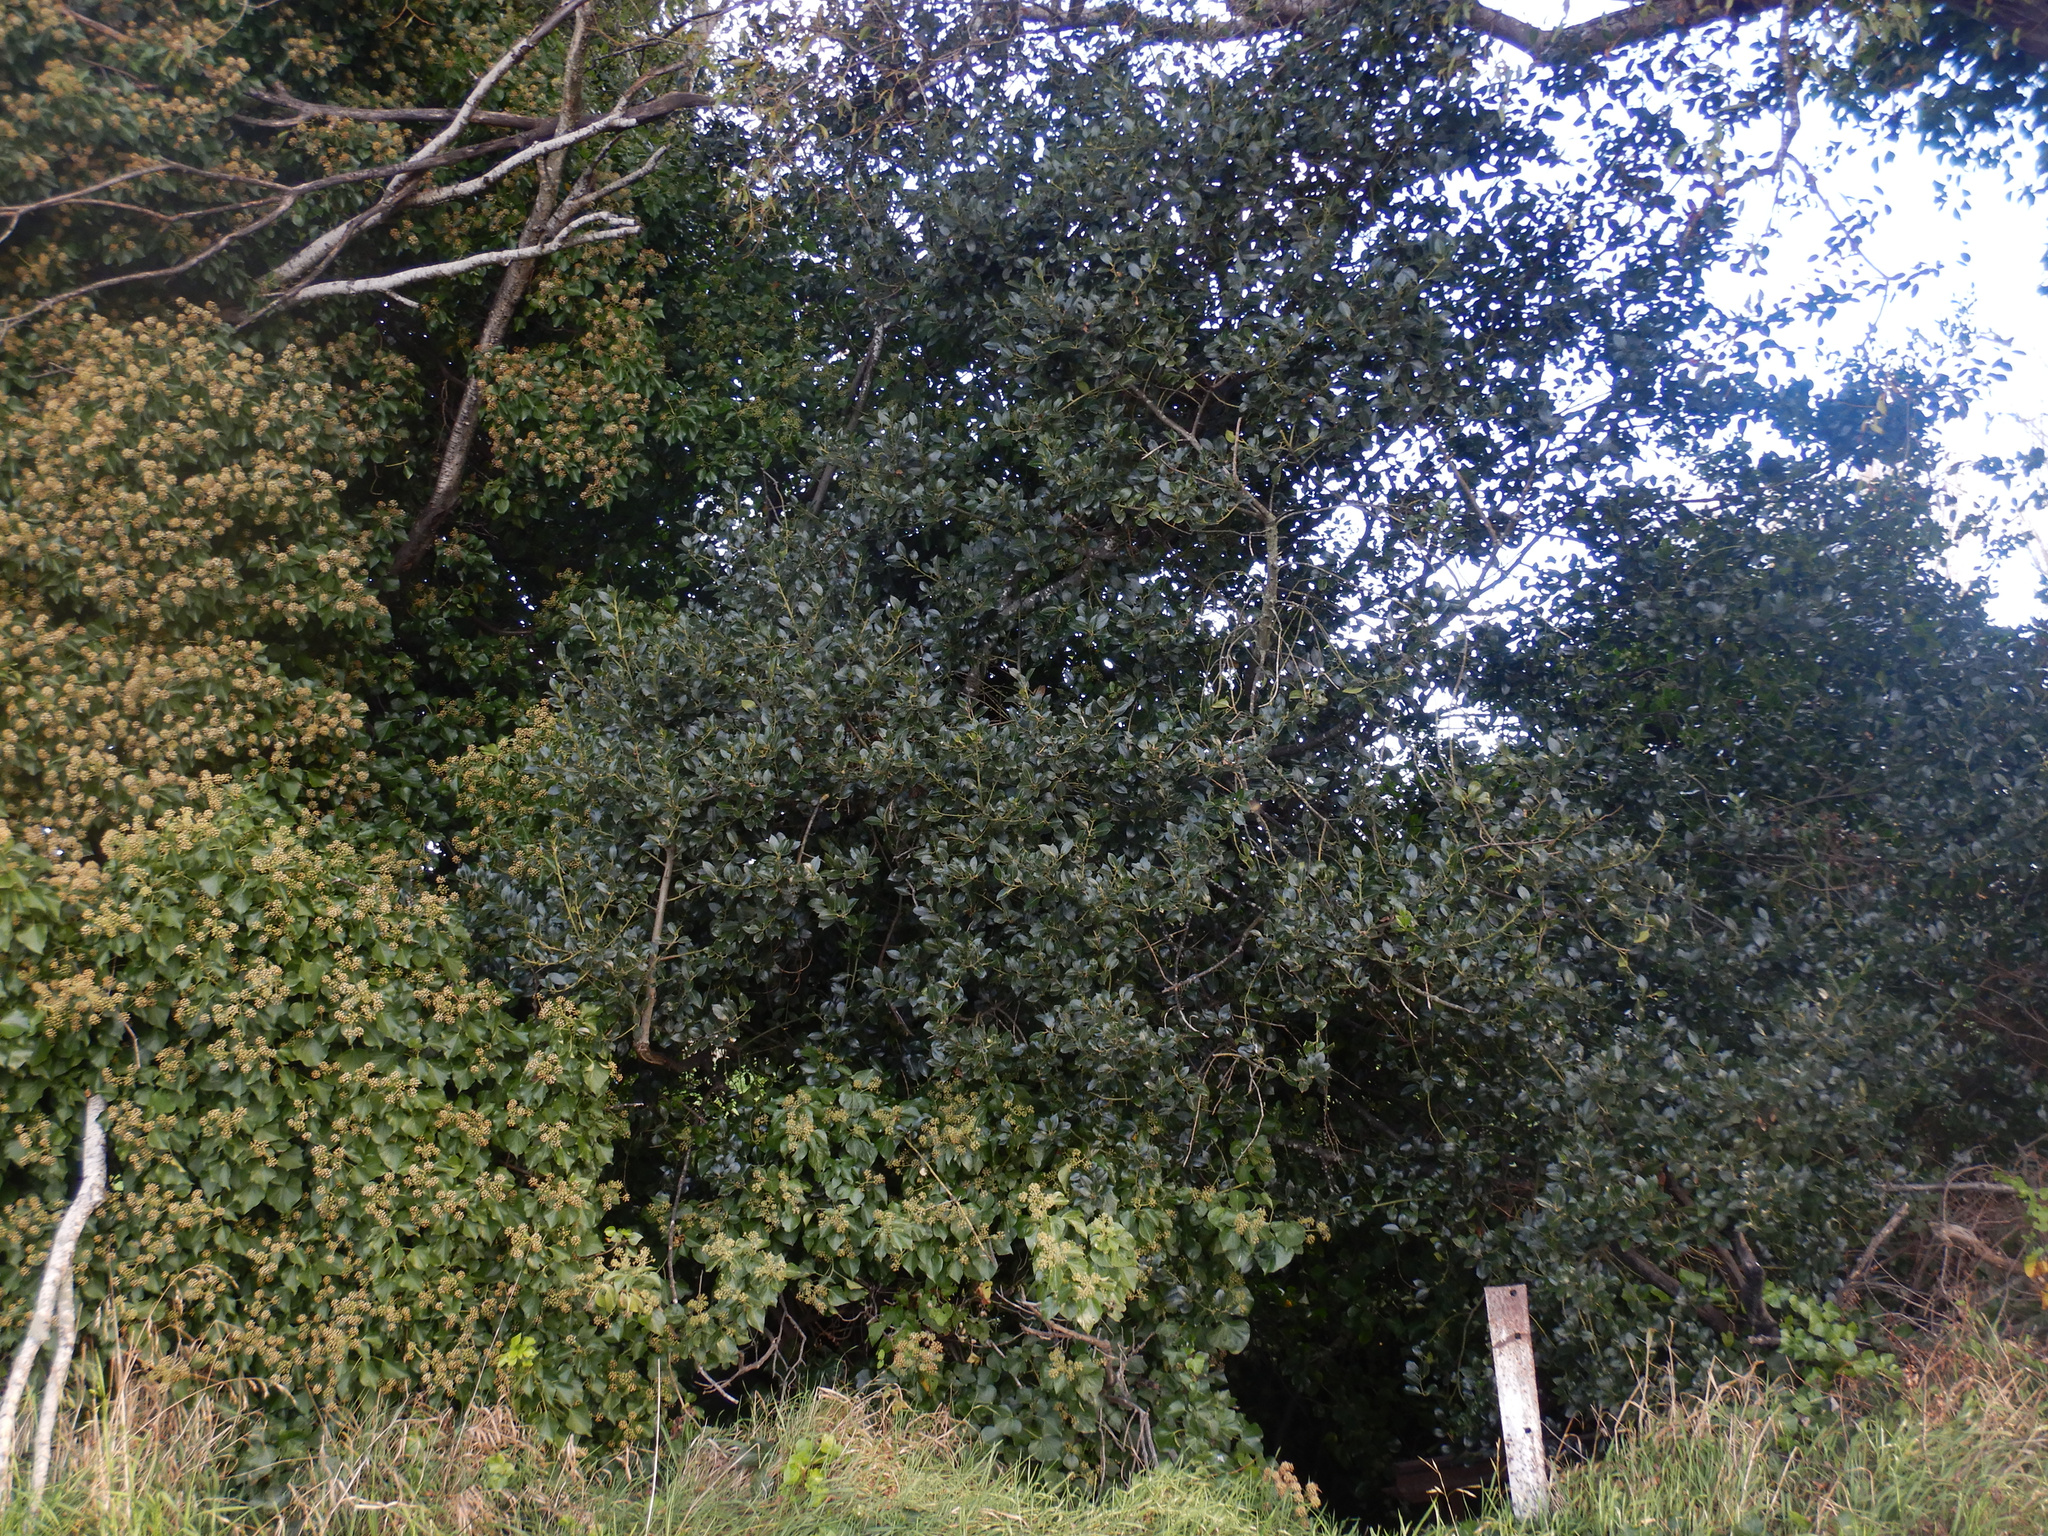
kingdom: Plantae
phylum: Tracheophyta
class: Magnoliopsida
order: Aquifoliales
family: Aquifoliaceae
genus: Ilex
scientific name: Ilex aquifolium
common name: English holly
